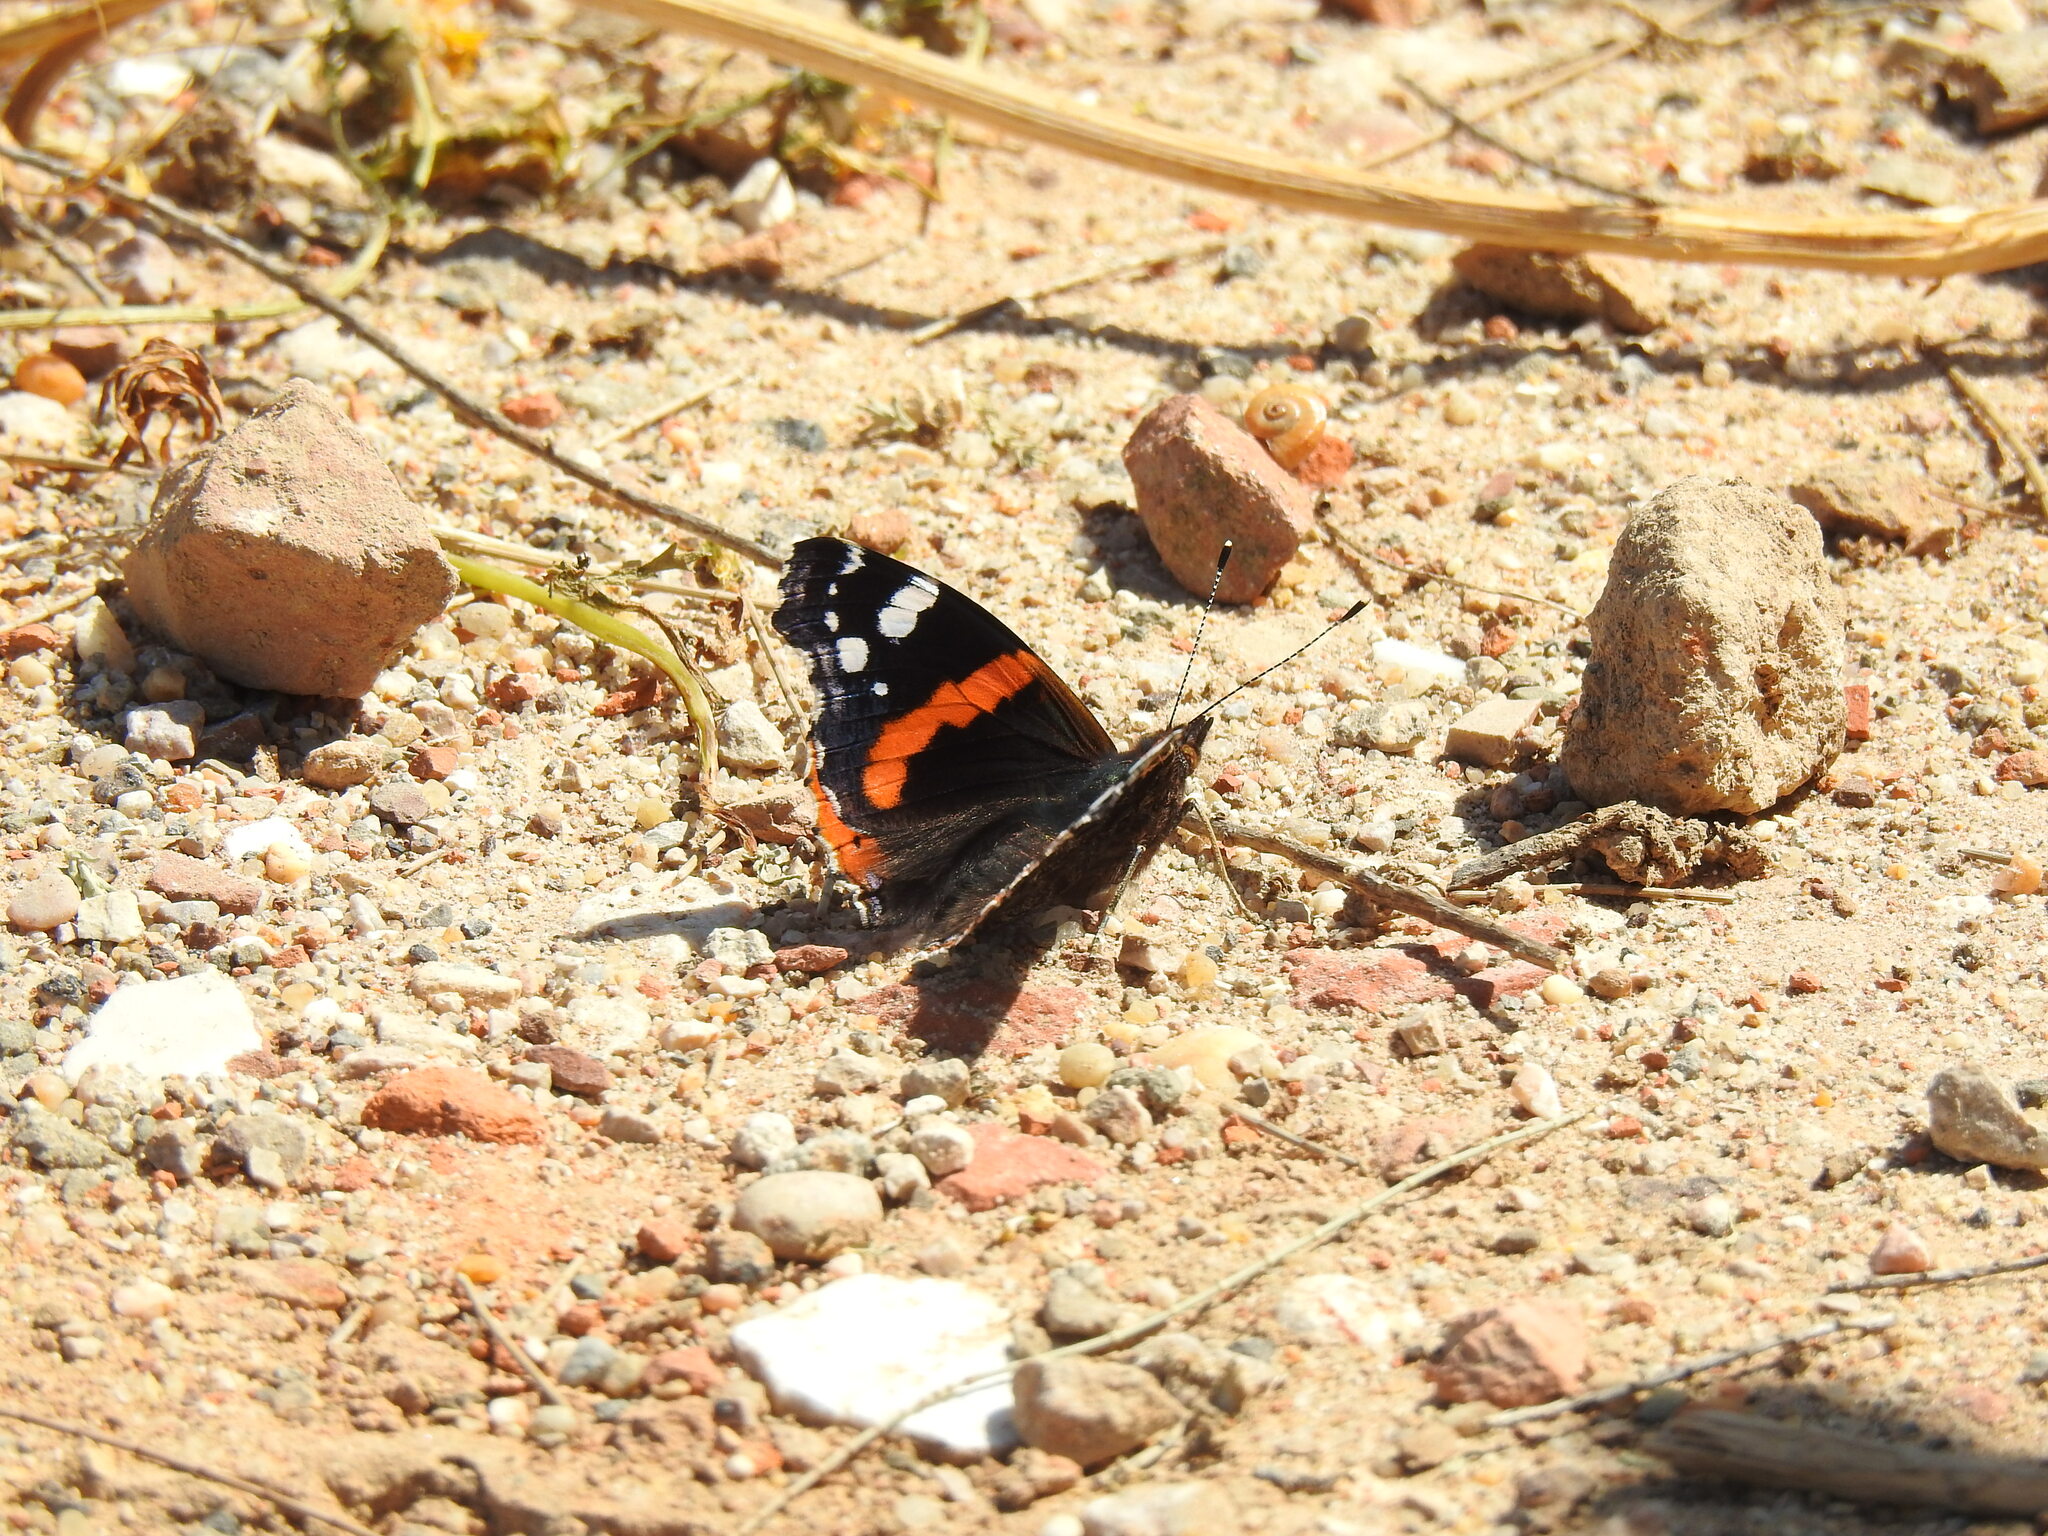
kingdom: Animalia
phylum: Arthropoda
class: Insecta
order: Lepidoptera
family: Nymphalidae
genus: Vanessa
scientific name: Vanessa atalanta
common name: Red admiral
